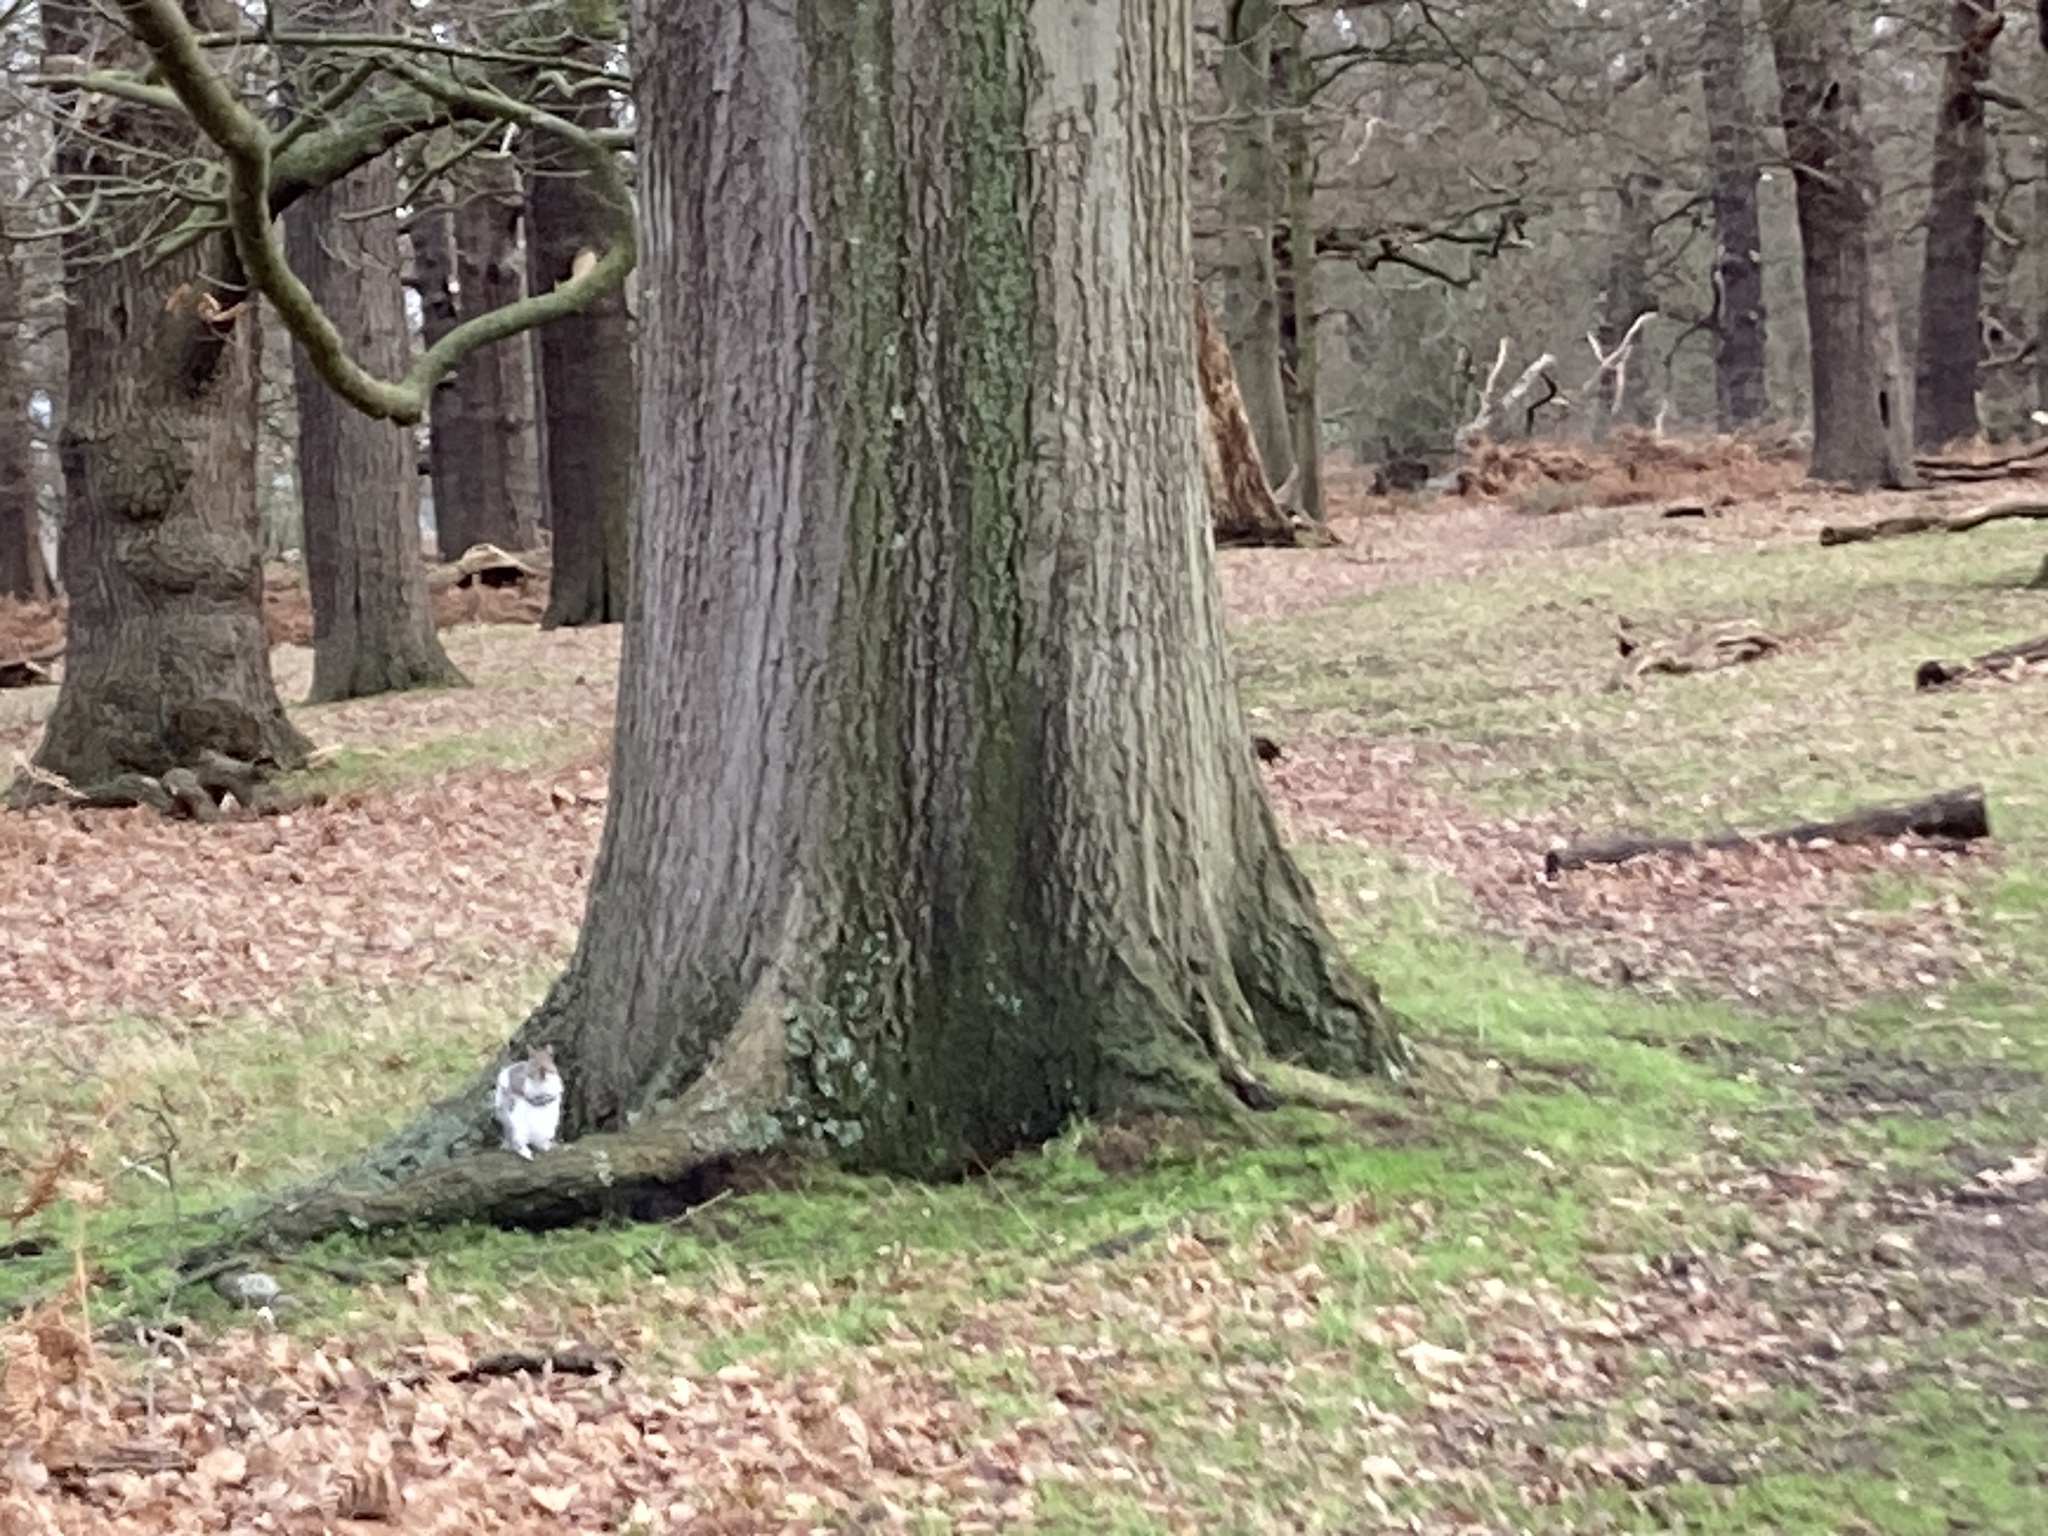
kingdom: Animalia
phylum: Chordata
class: Mammalia
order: Rodentia
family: Sciuridae
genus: Sciurus
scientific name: Sciurus carolinensis
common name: Eastern gray squirrel
